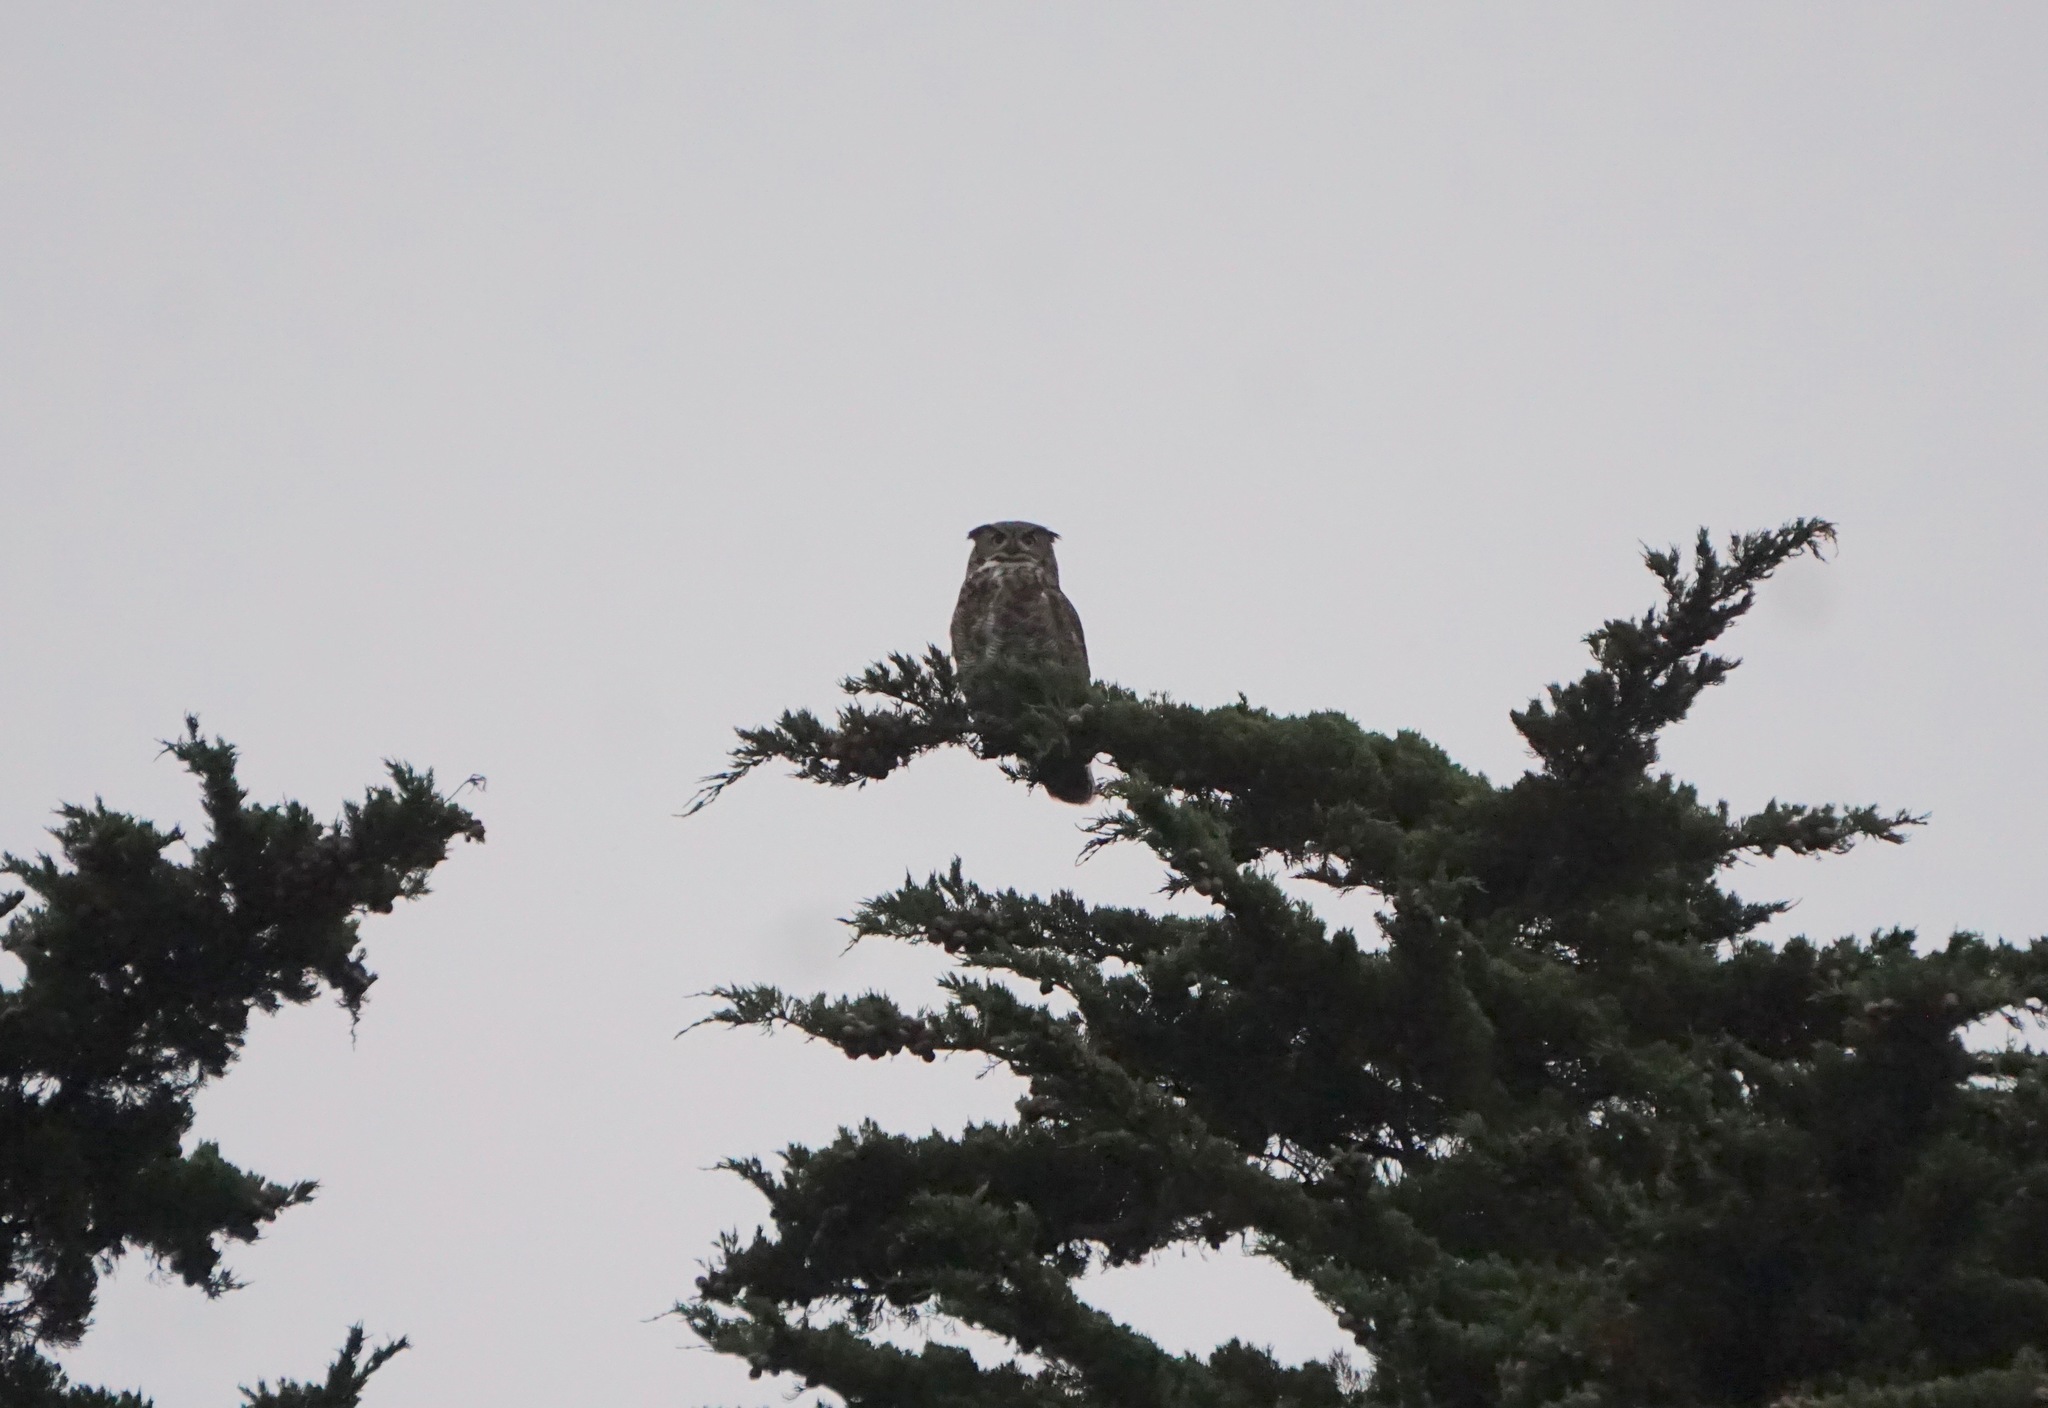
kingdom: Animalia
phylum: Chordata
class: Aves
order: Strigiformes
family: Strigidae
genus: Bubo
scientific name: Bubo virginianus
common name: Great horned owl
